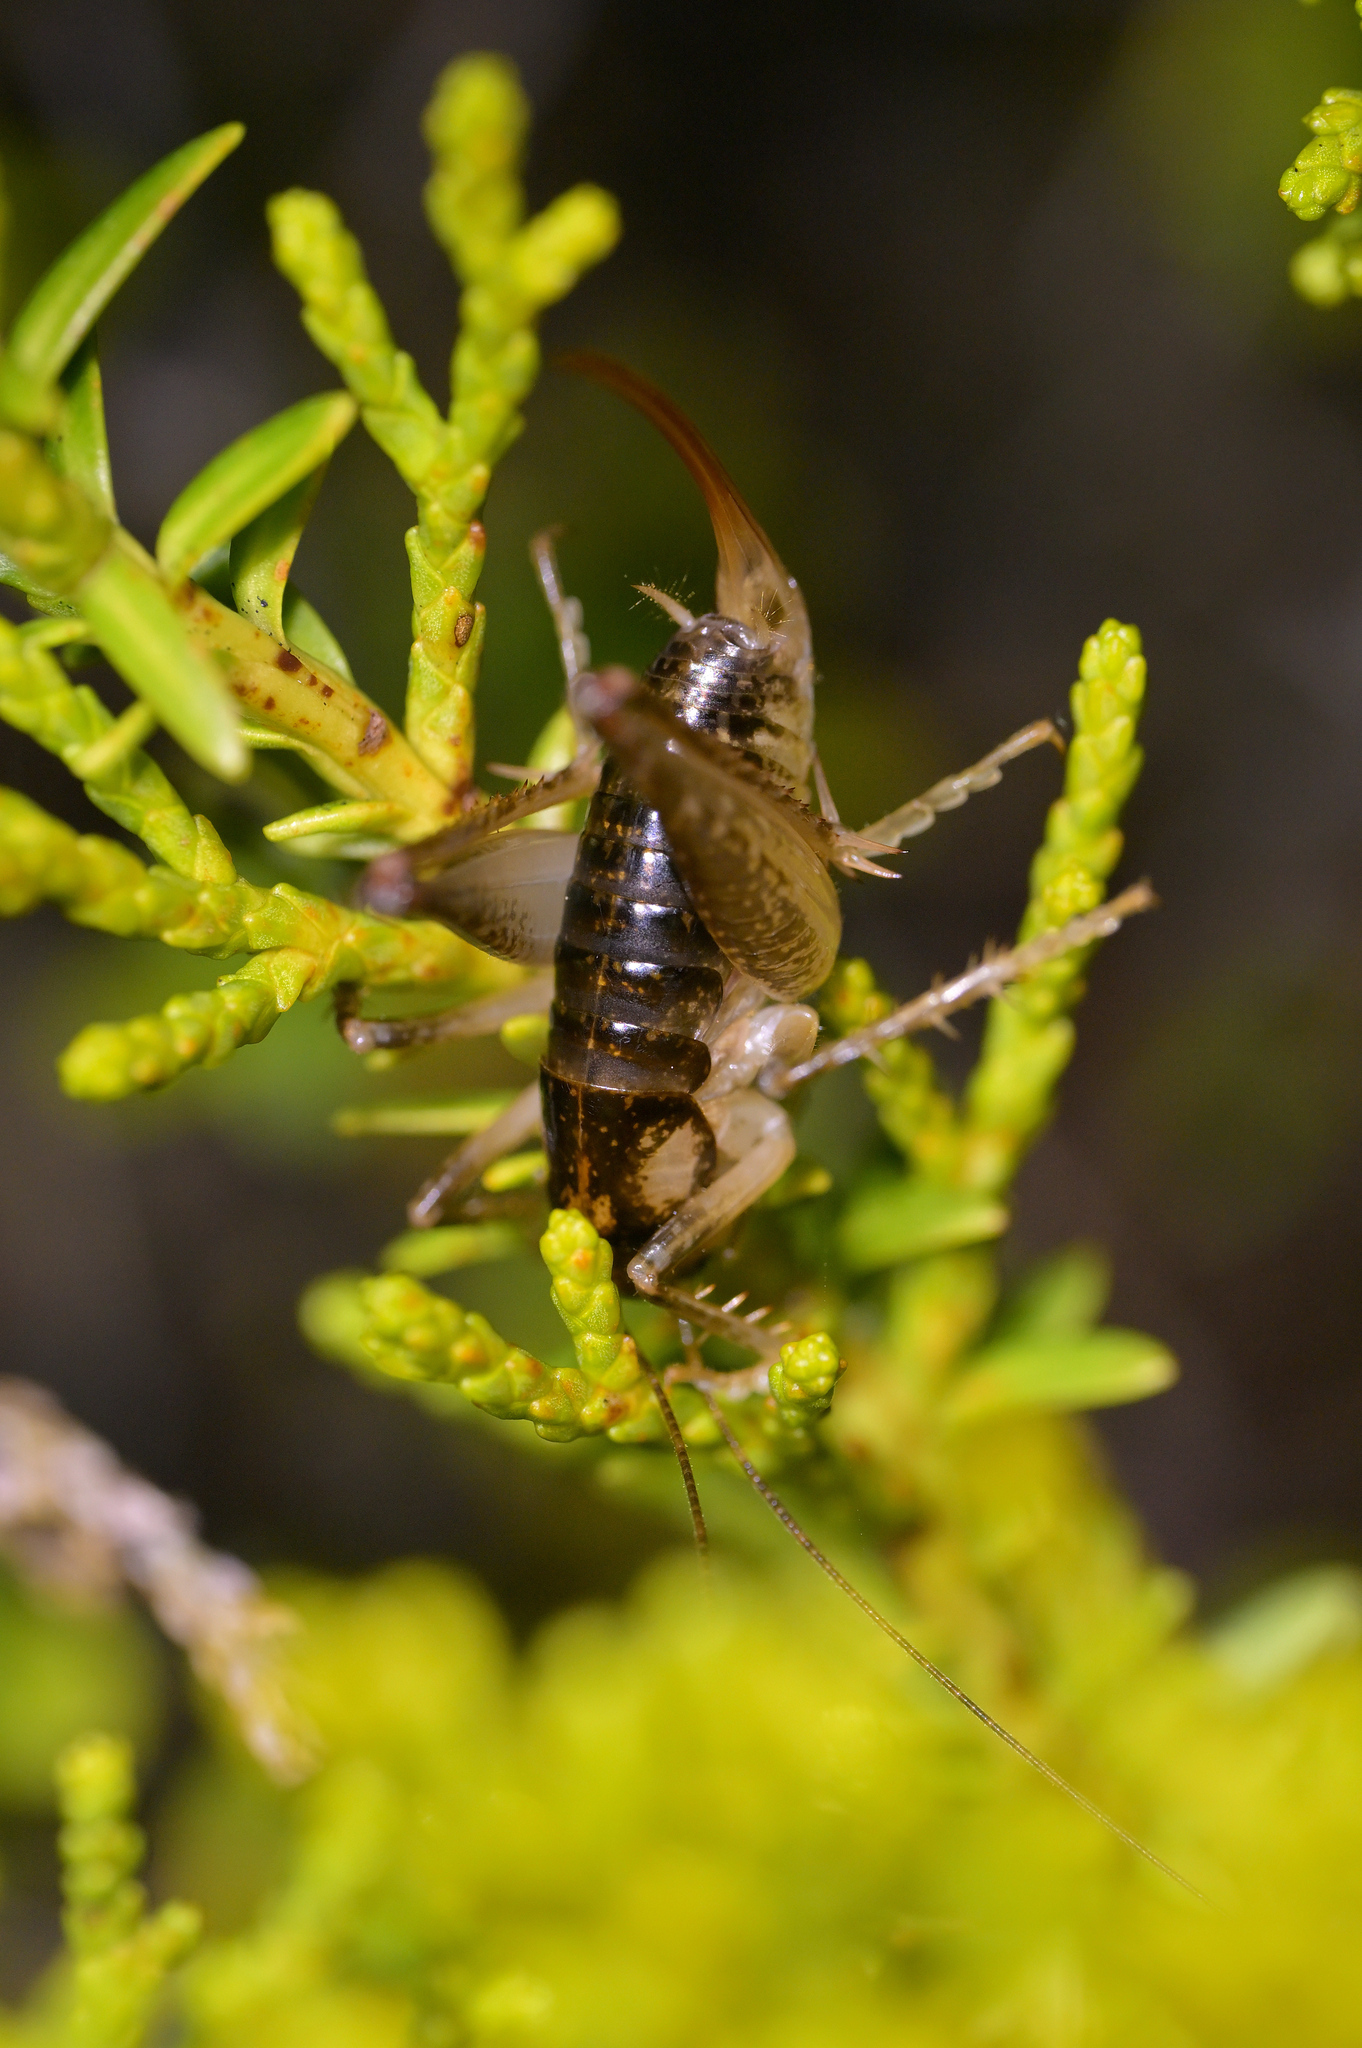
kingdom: Animalia
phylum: Arthropoda
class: Insecta
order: Orthoptera
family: Anostostomatidae
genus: Hemiandrus
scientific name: Hemiandrus maculifrons
